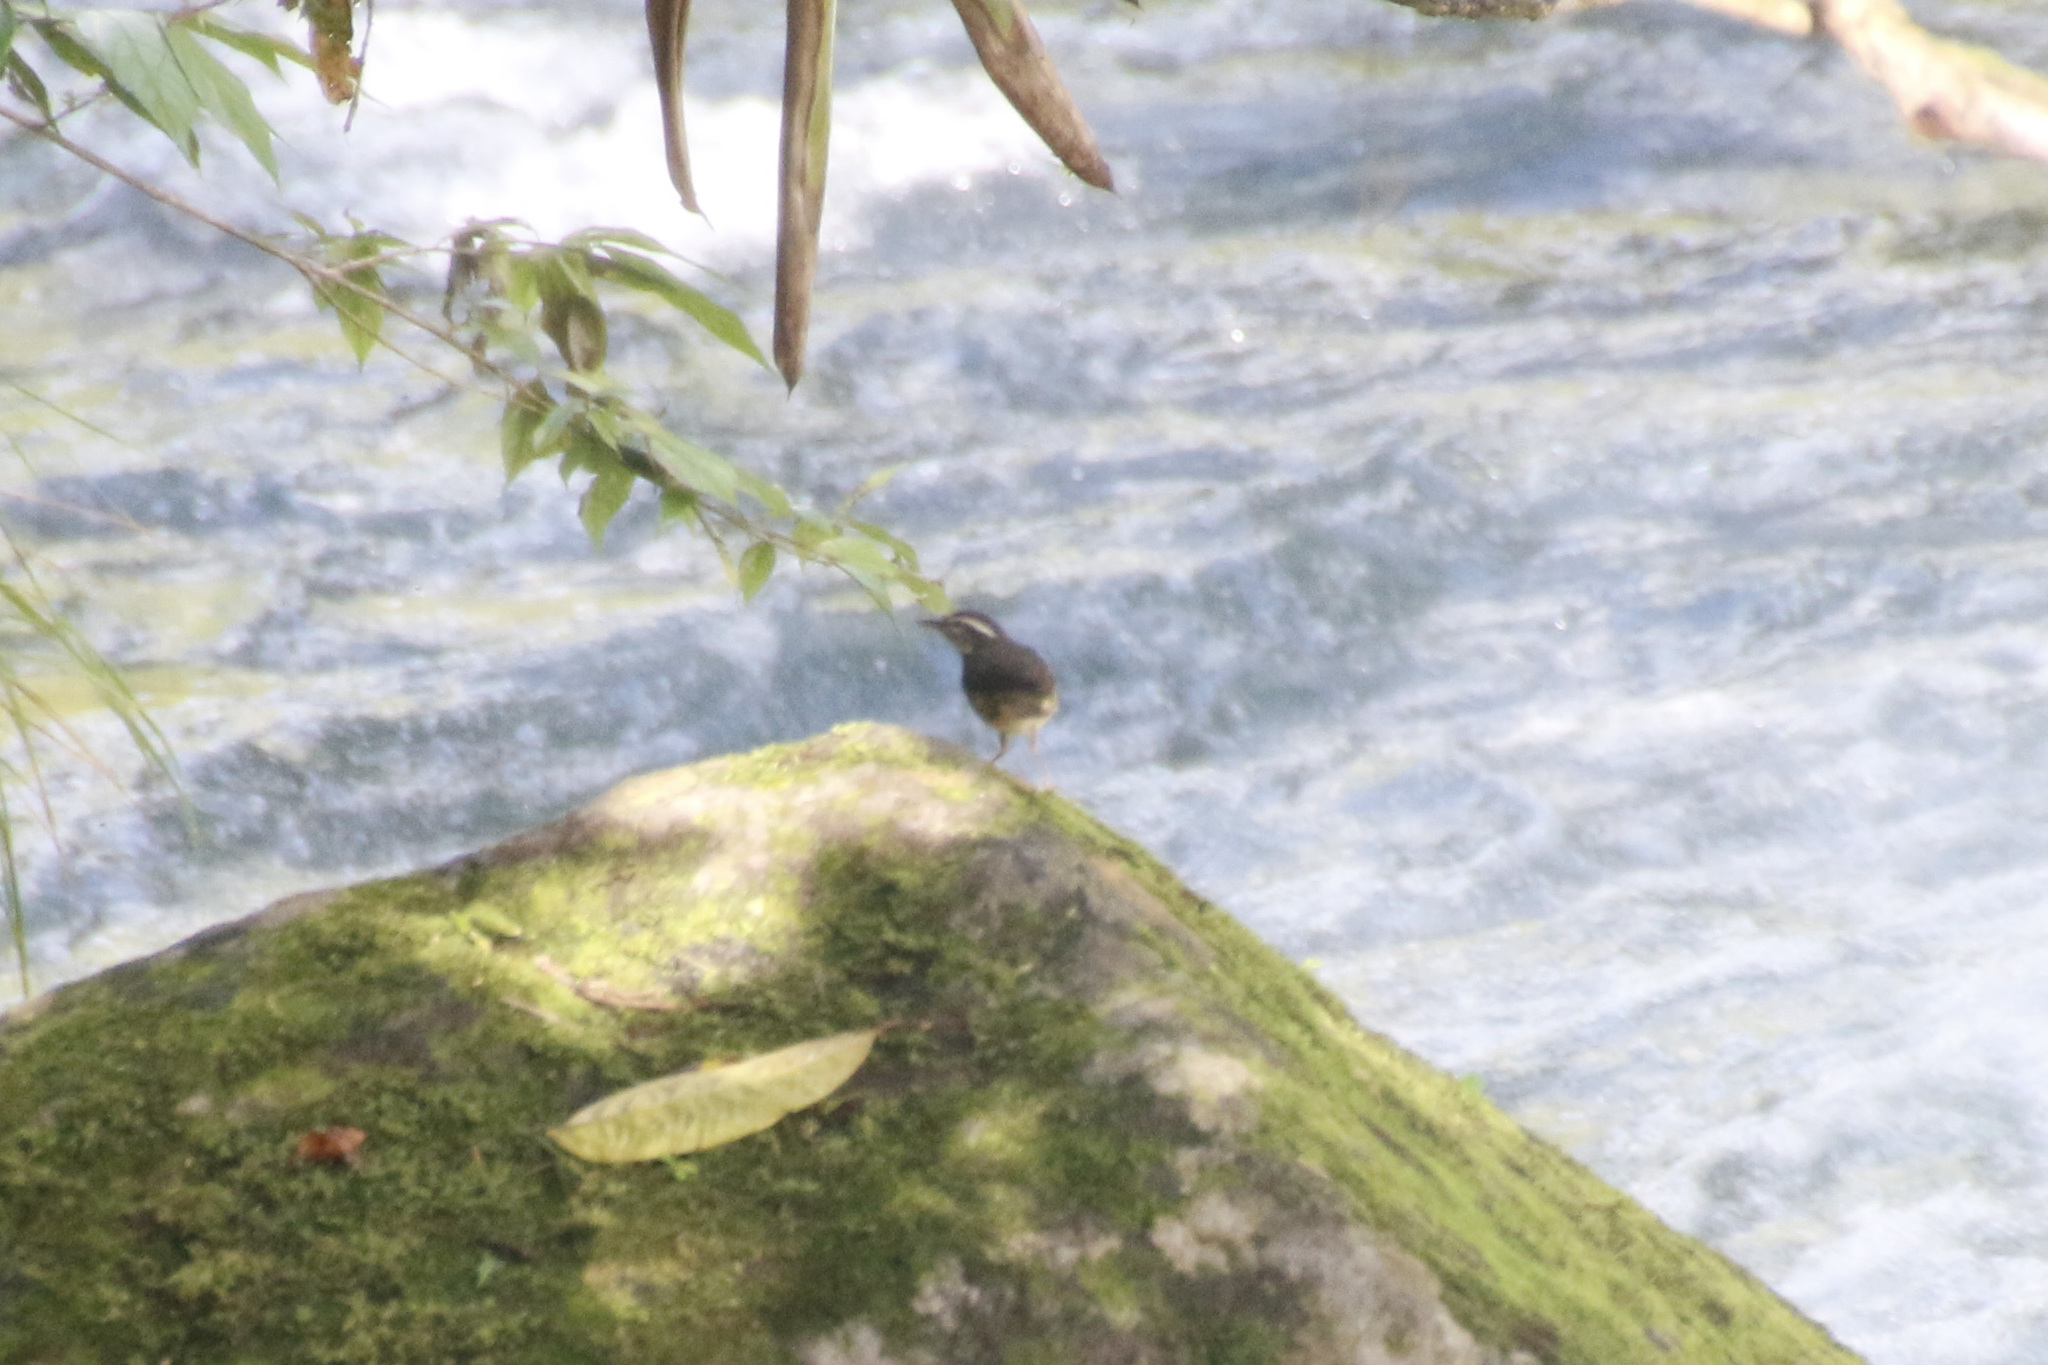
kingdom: Animalia
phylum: Chordata
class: Aves
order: Passeriformes
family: Parulidae
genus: Parkesia
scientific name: Parkesia motacilla
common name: Louisiana waterthrush
